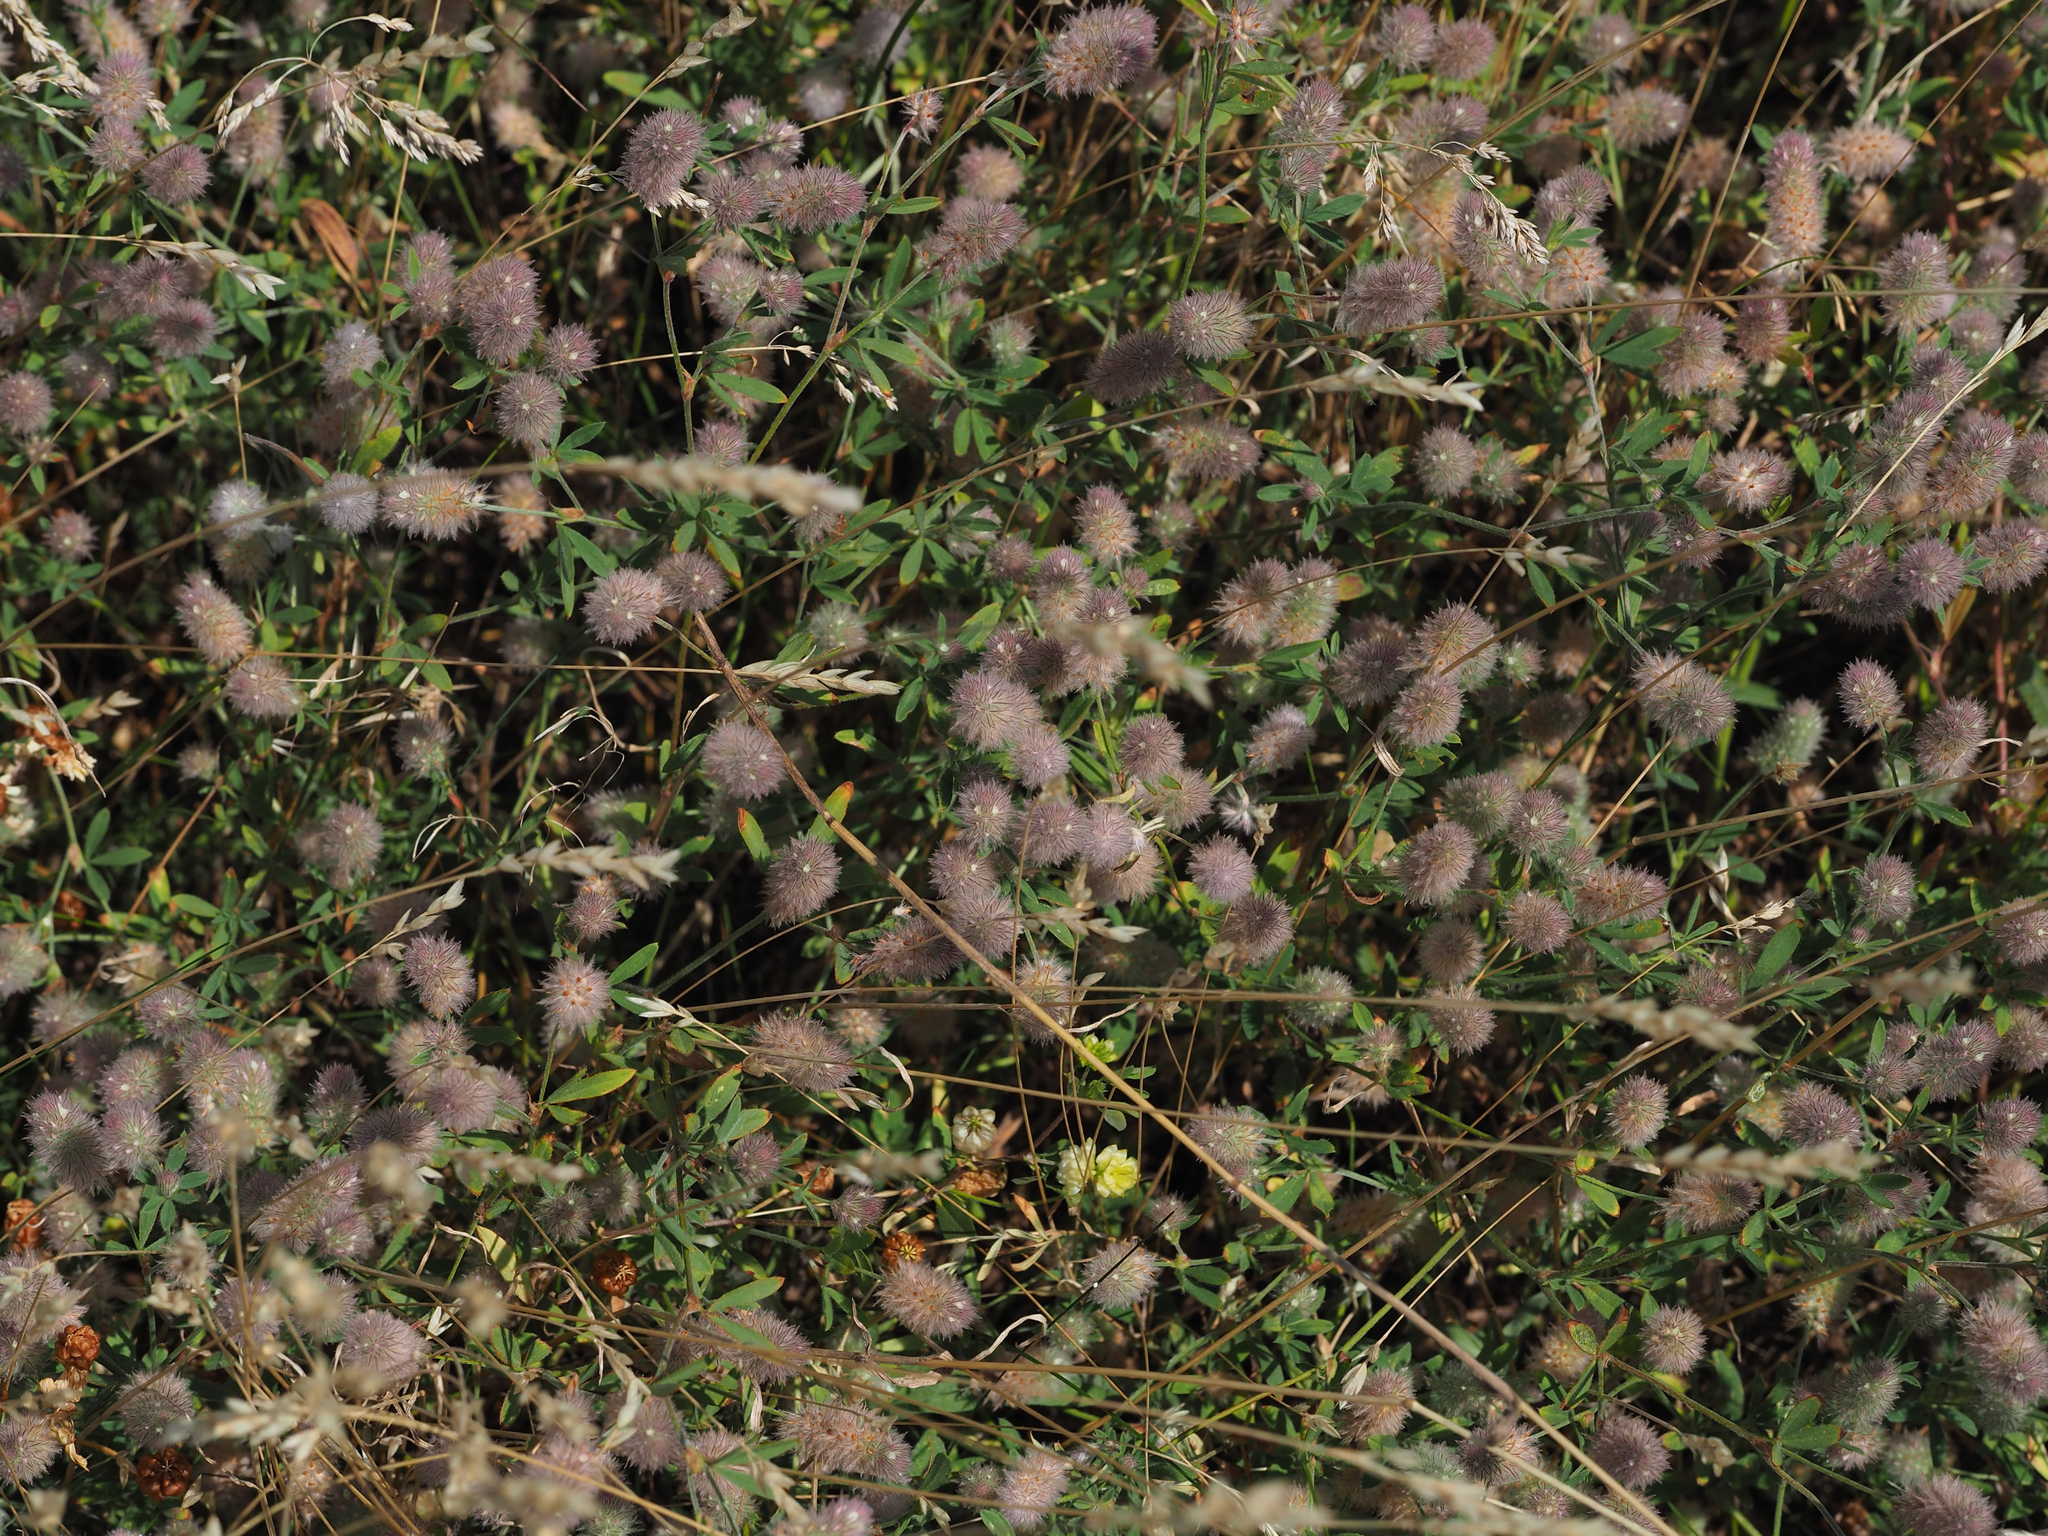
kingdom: Plantae
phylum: Tracheophyta
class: Magnoliopsida
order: Fabales
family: Fabaceae
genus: Trifolium
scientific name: Trifolium arvense
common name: Hare's-foot clover
